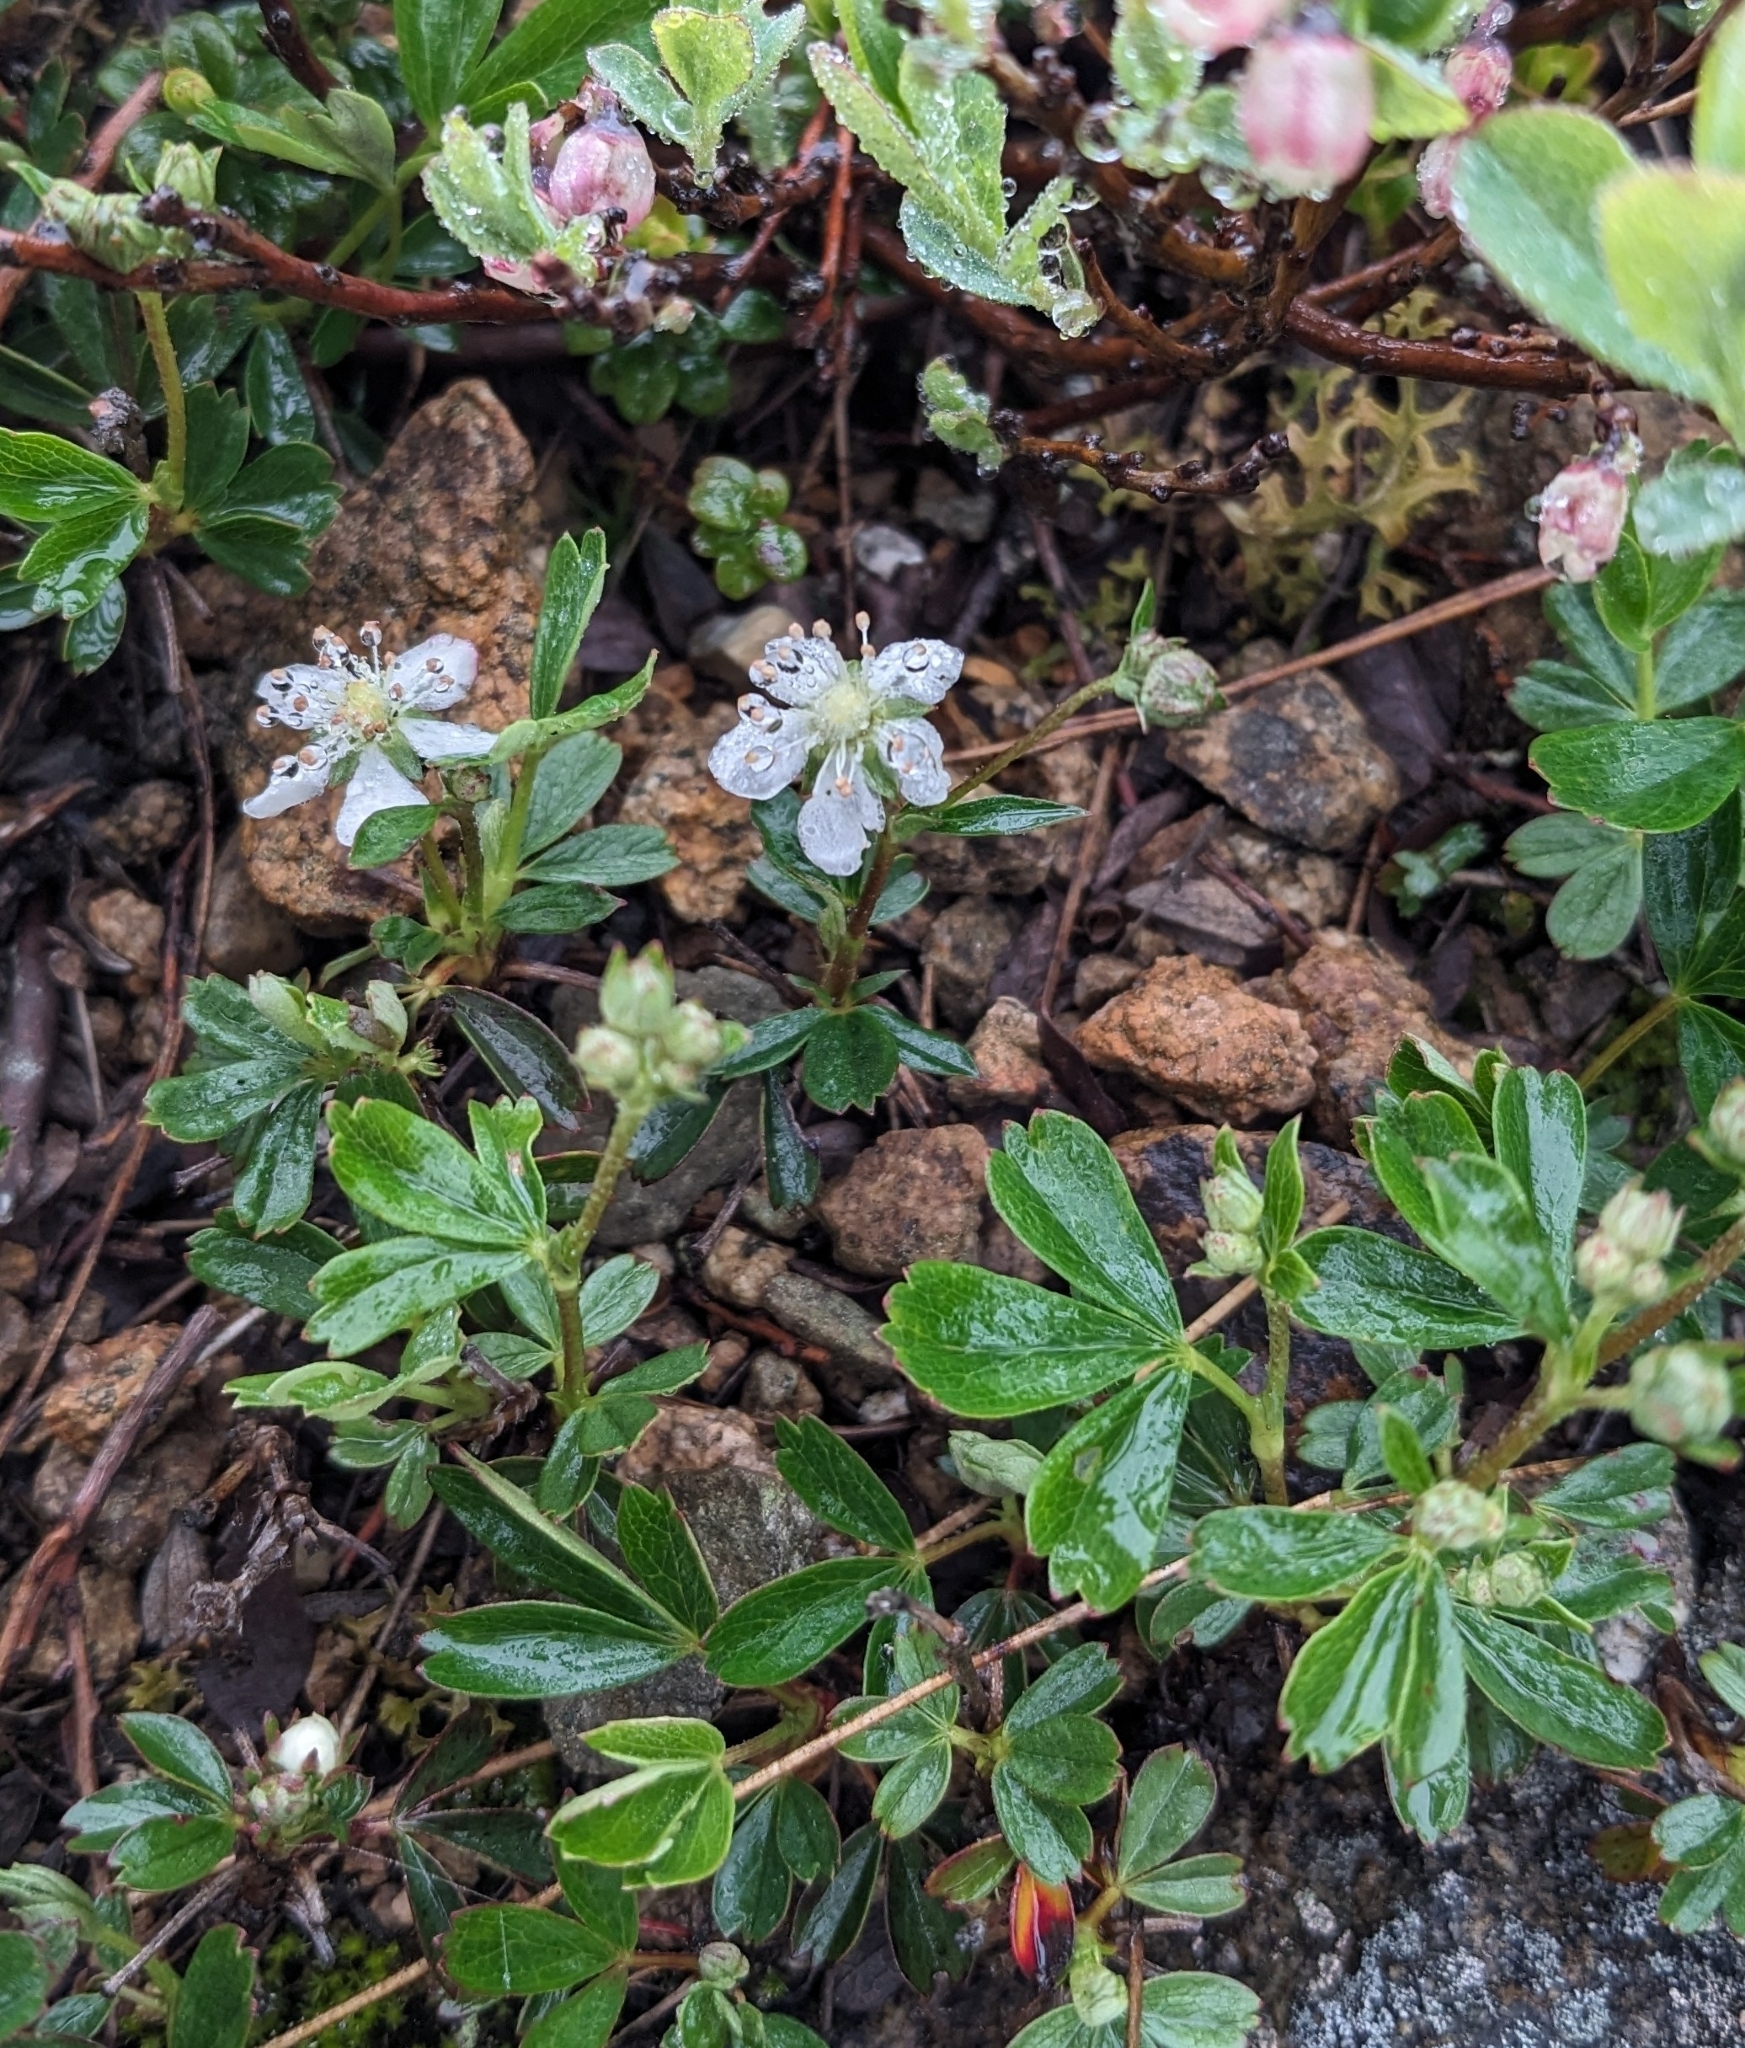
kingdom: Plantae
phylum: Tracheophyta
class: Magnoliopsida
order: Rosales
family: Rosaceae
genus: Sibbaldia
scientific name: Sibbaldia tridentata
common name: Three-toothed cinquefoil
